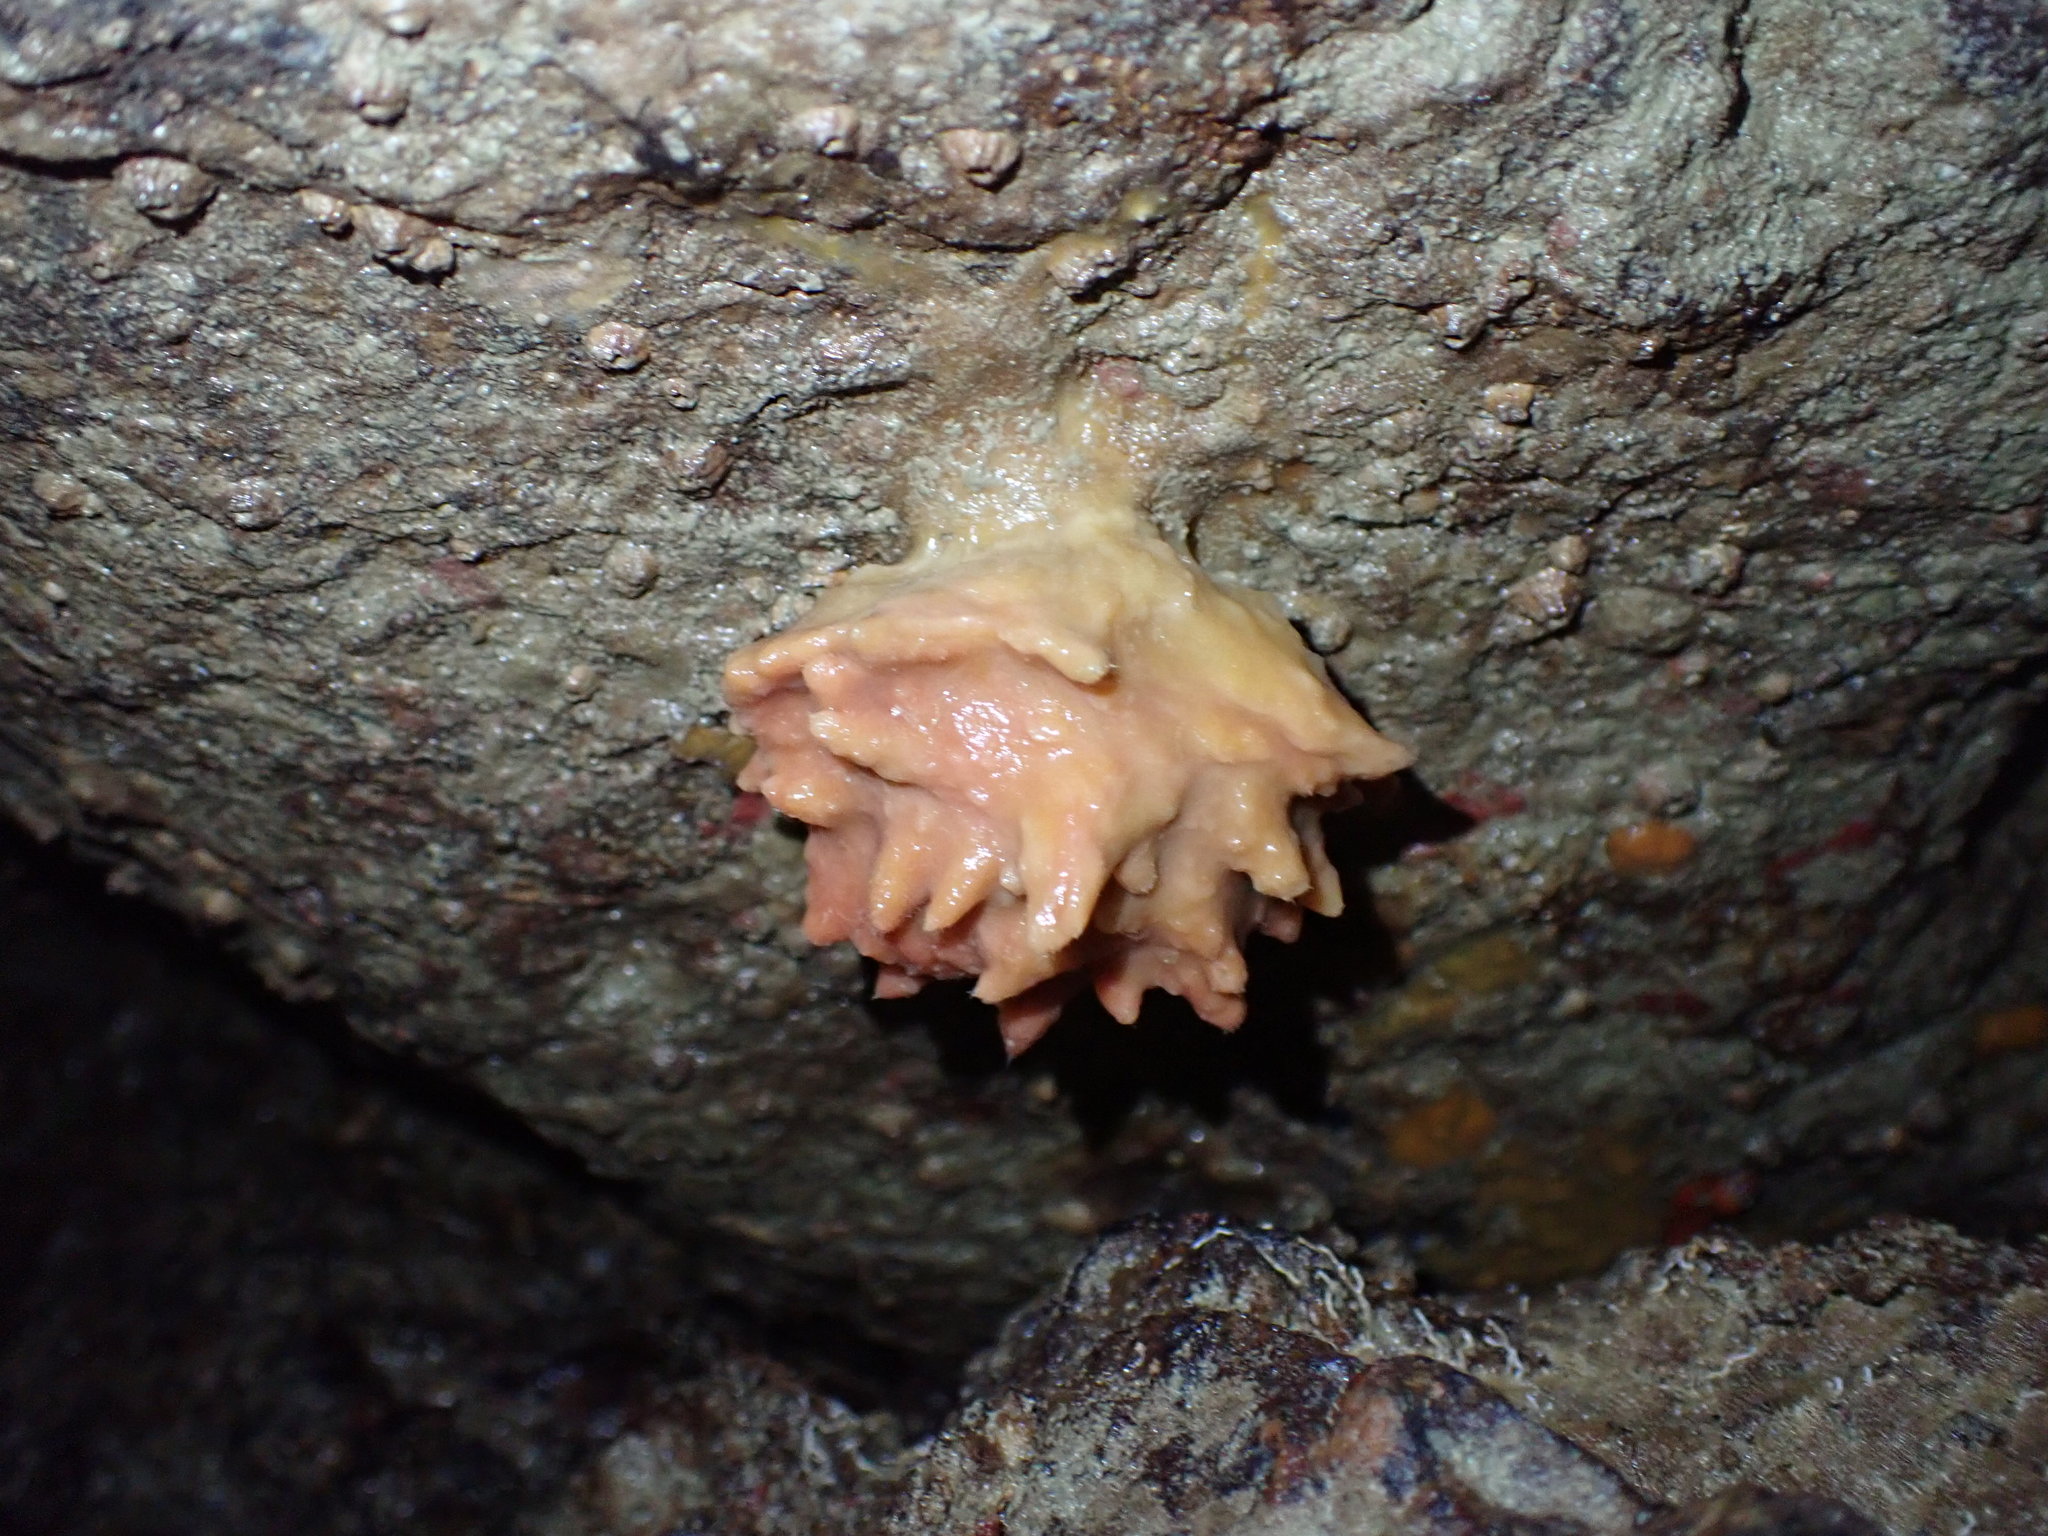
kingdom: Animalia
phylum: Porifera
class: Demospongiae
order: Tethyida
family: Tethyidae
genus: Tethya
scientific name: Tethya bergquistae
